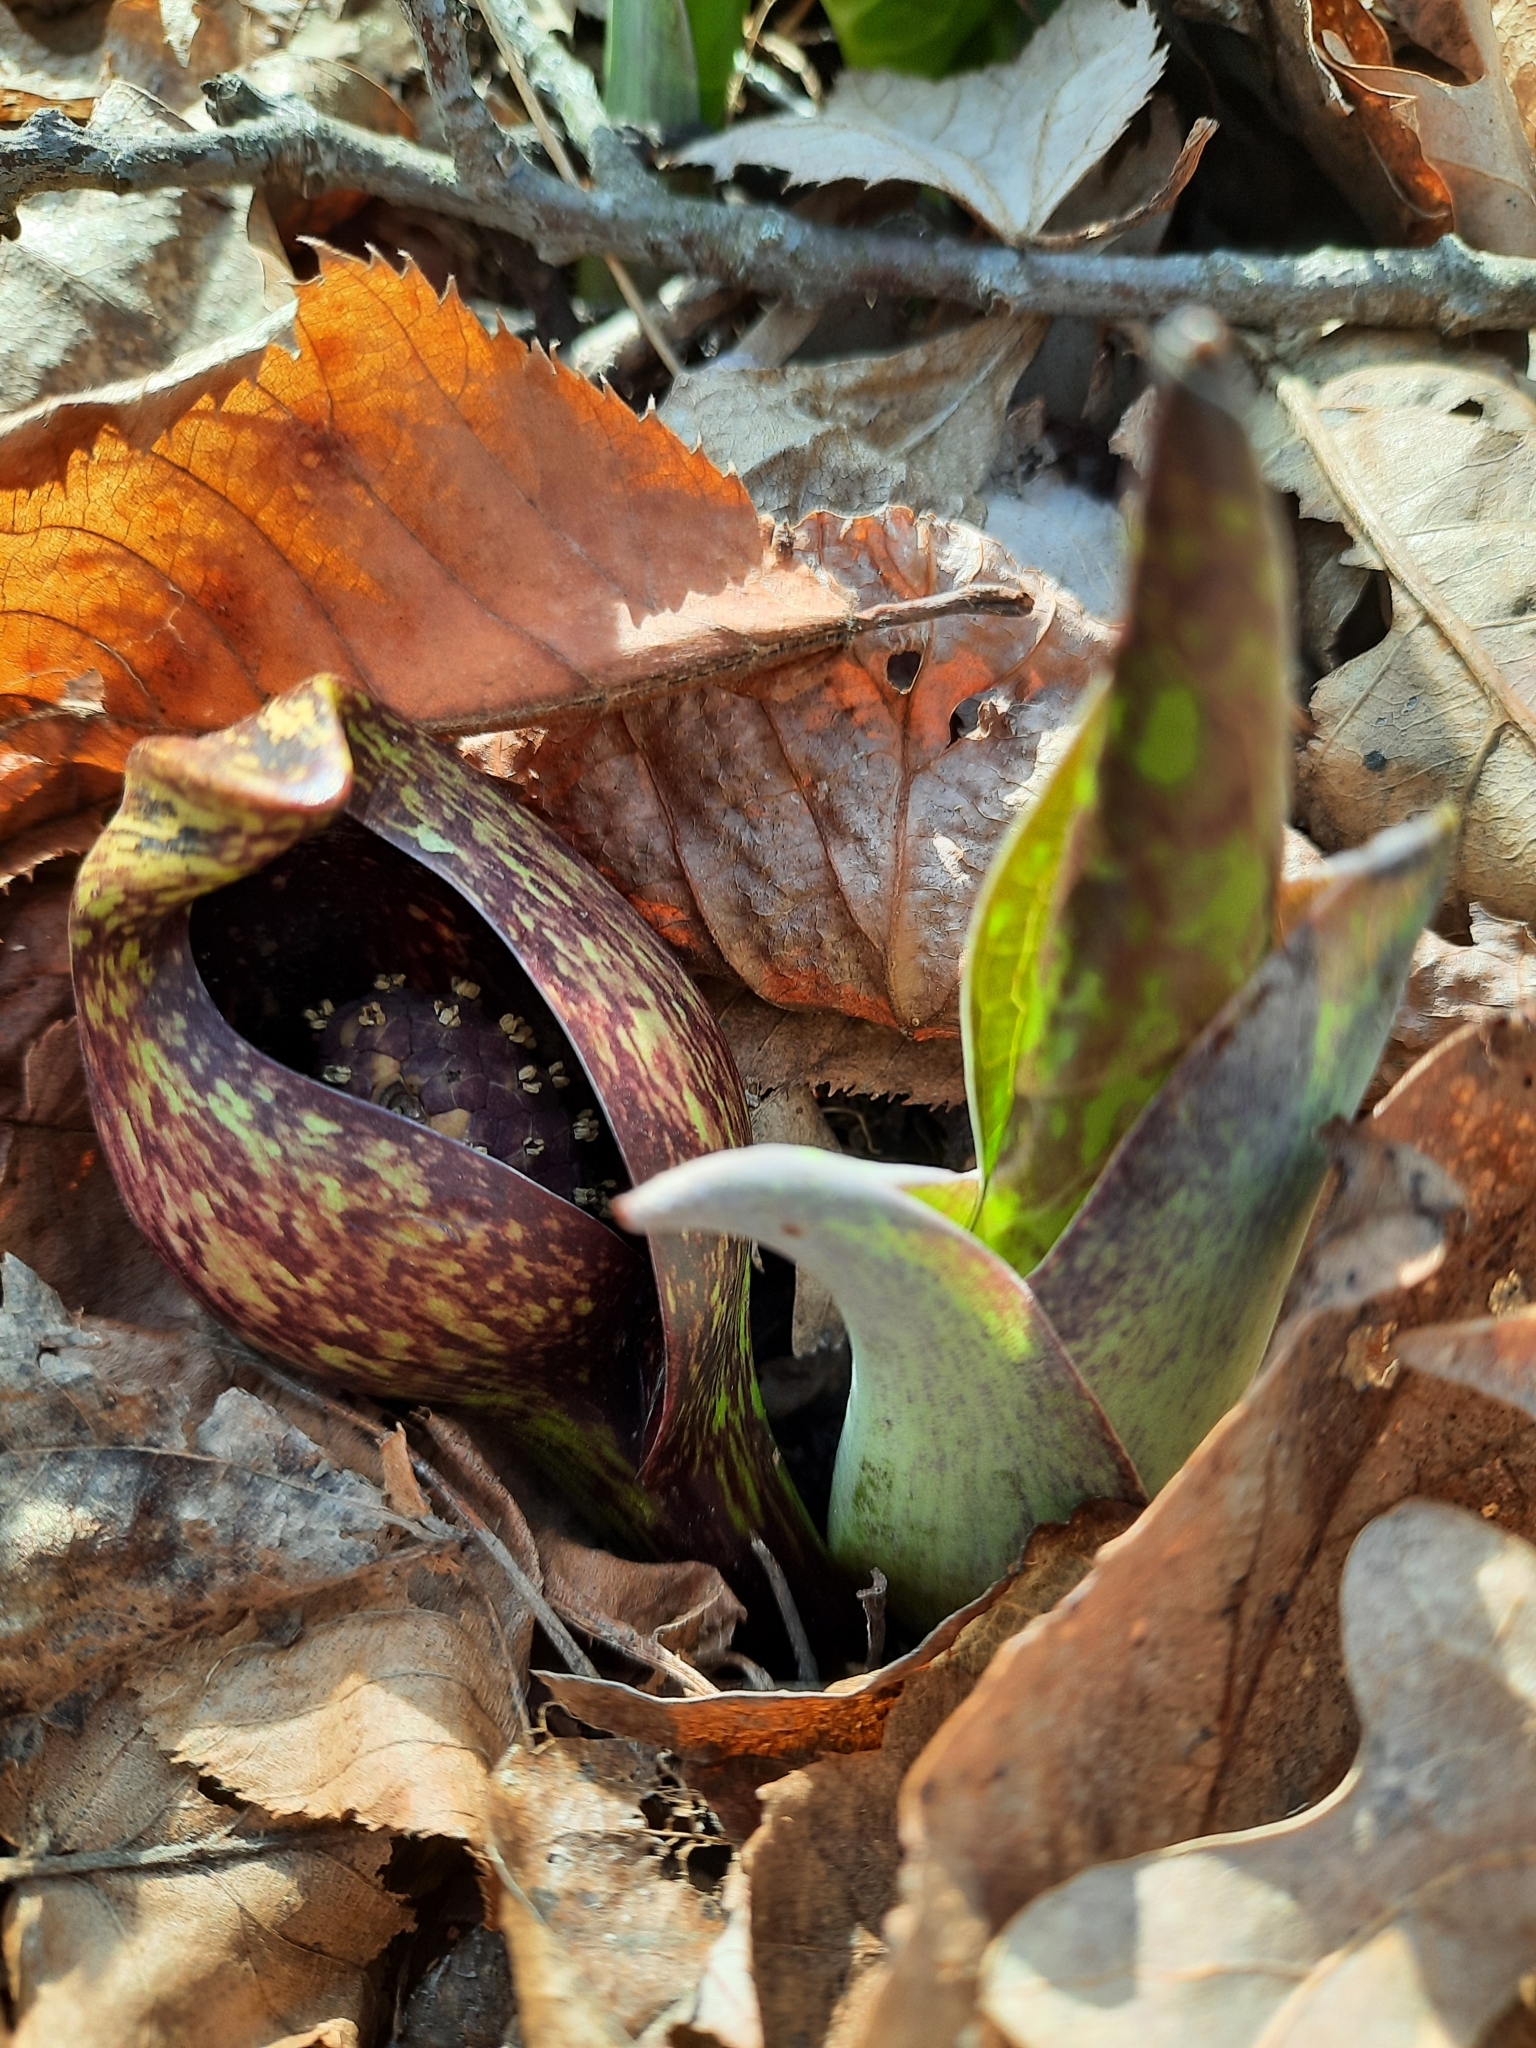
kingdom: Plantae
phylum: Tracheophyta
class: Liliopsida
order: Alismatales
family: Araceae
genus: Symplocarpus
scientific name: Symplocarpus foetidus
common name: Eastern skunk cabbage
